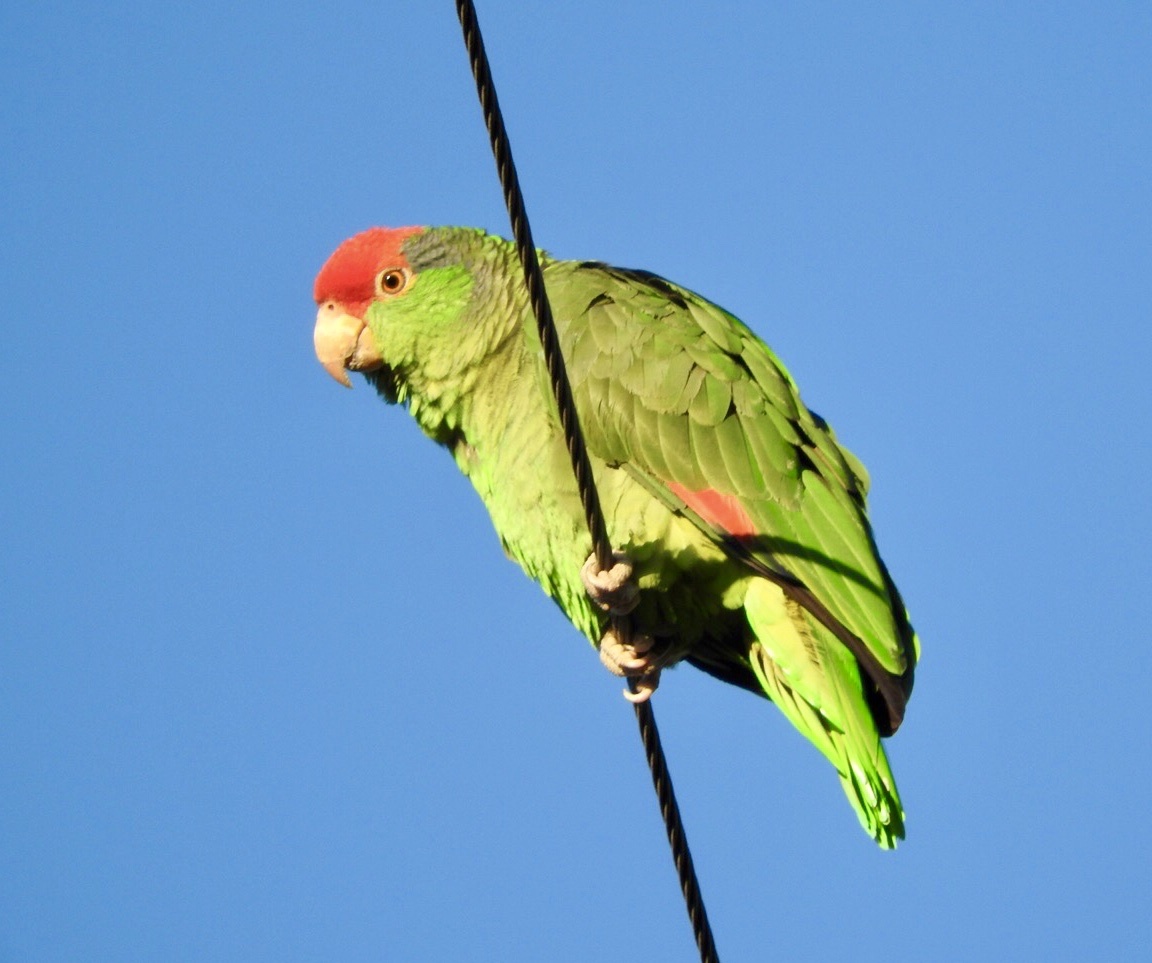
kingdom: Animalia
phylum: Chordata
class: Aves
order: Psittaciformes
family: Psittacidae
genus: Amazona
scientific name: Amazona viridigenalis
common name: Red-crowned amazon
